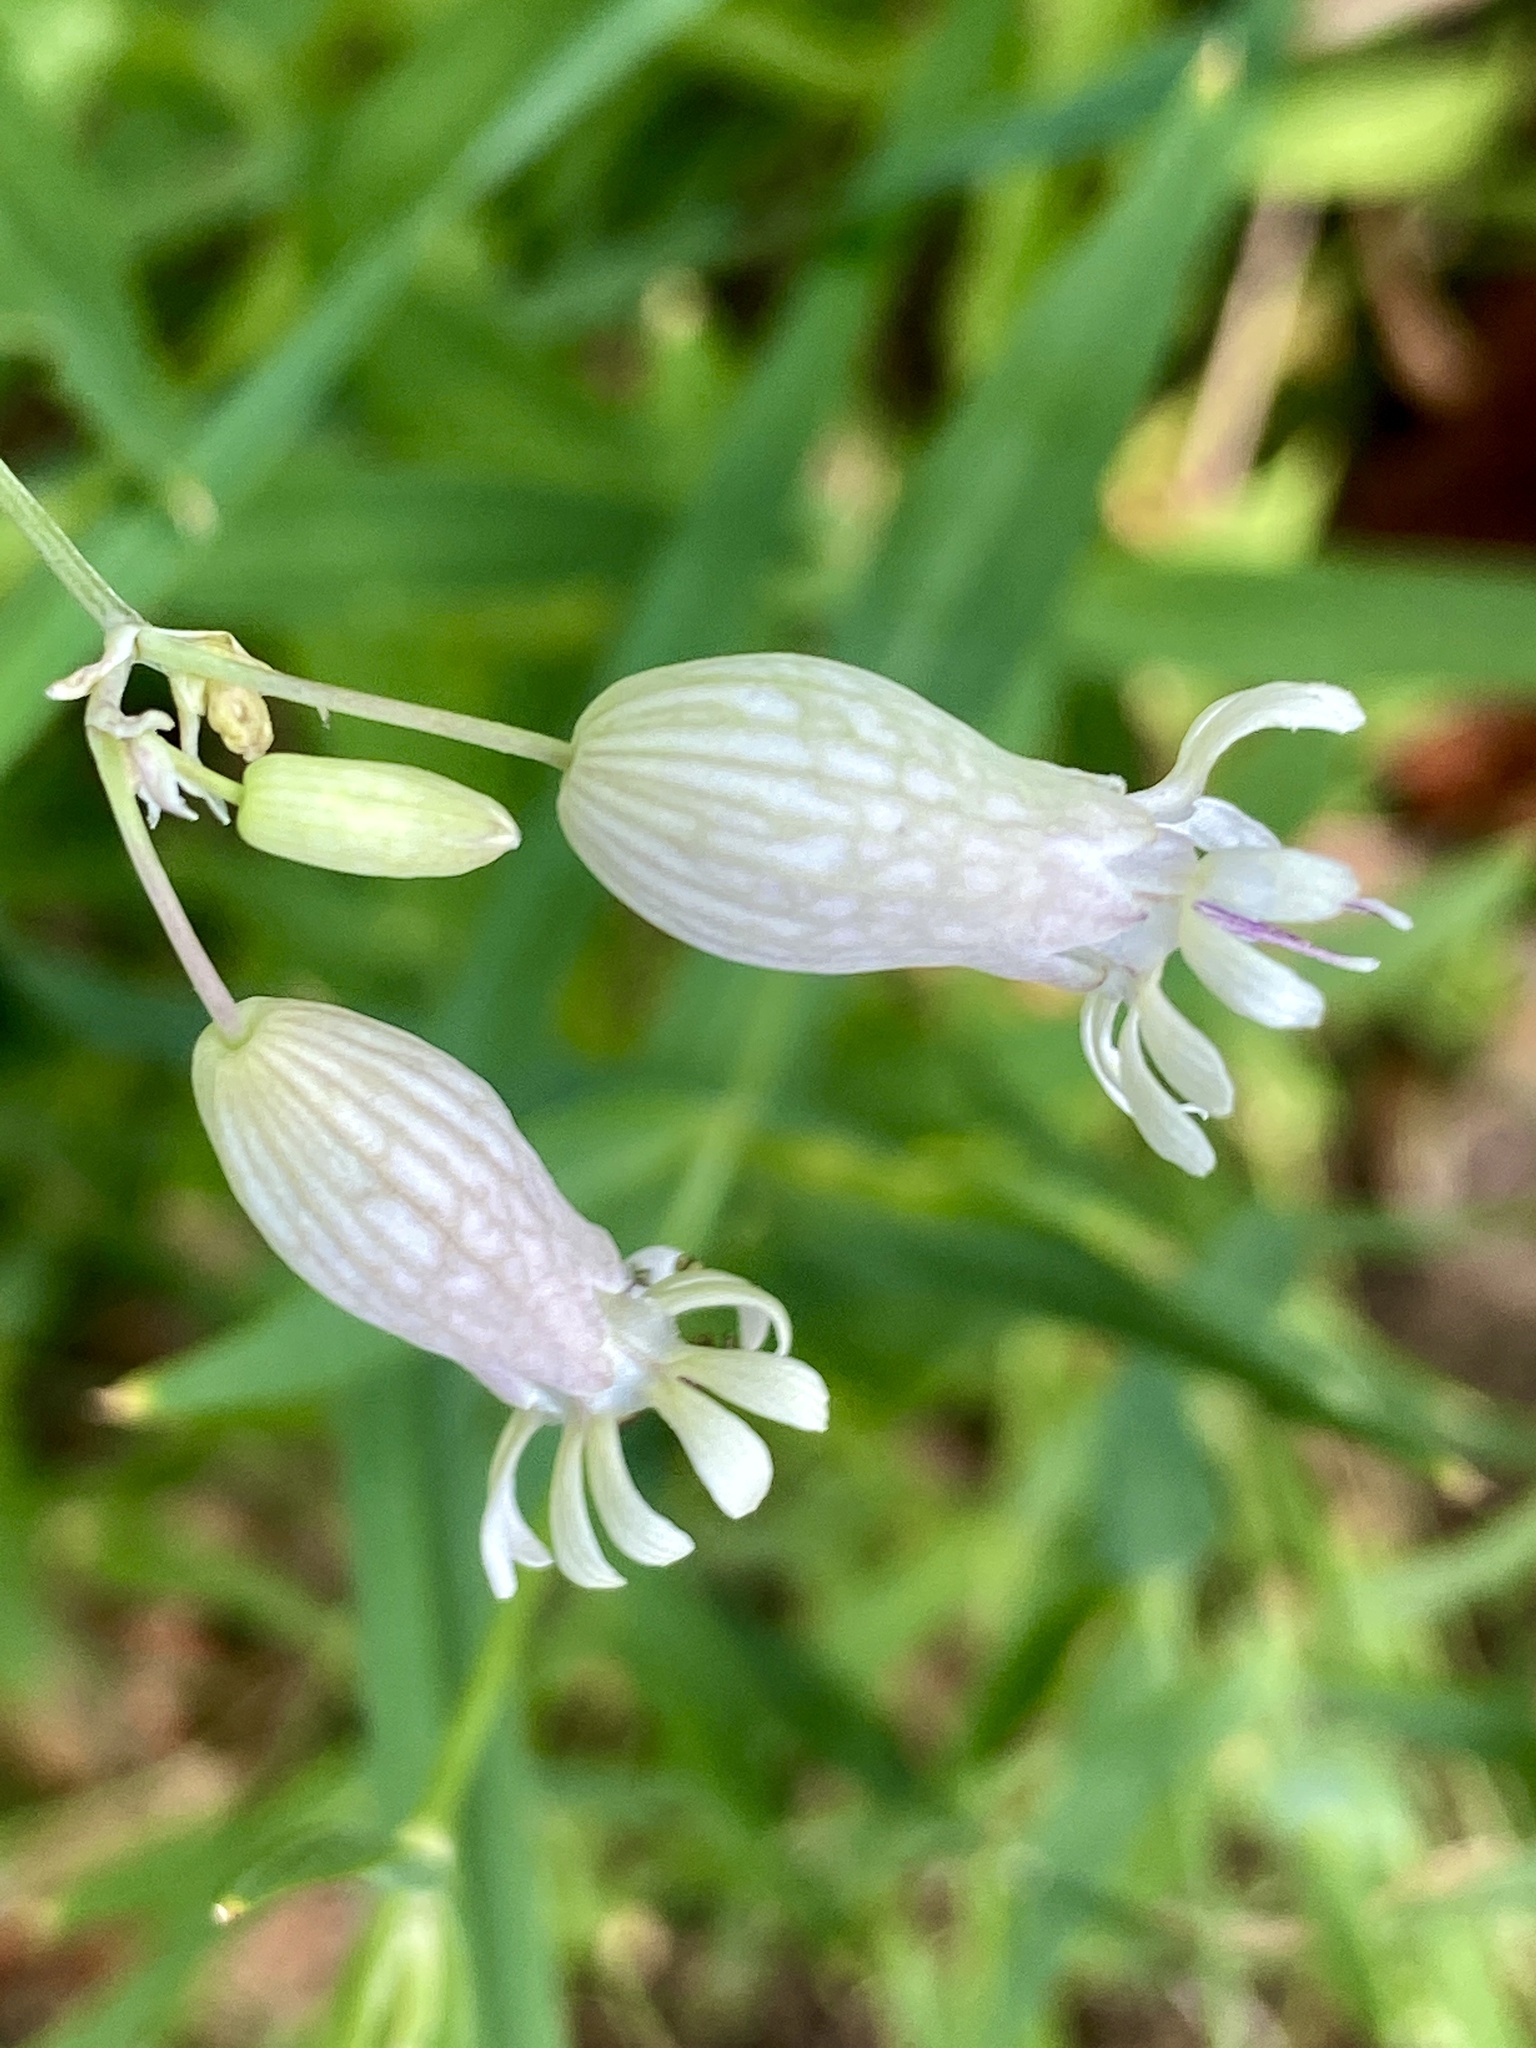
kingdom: Plantae
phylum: Tracheophyta
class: Magnoliopsida
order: Caryophyllales
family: Caryophyllaceae
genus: Silene
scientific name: Silene vulgaris
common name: Bladder campion
